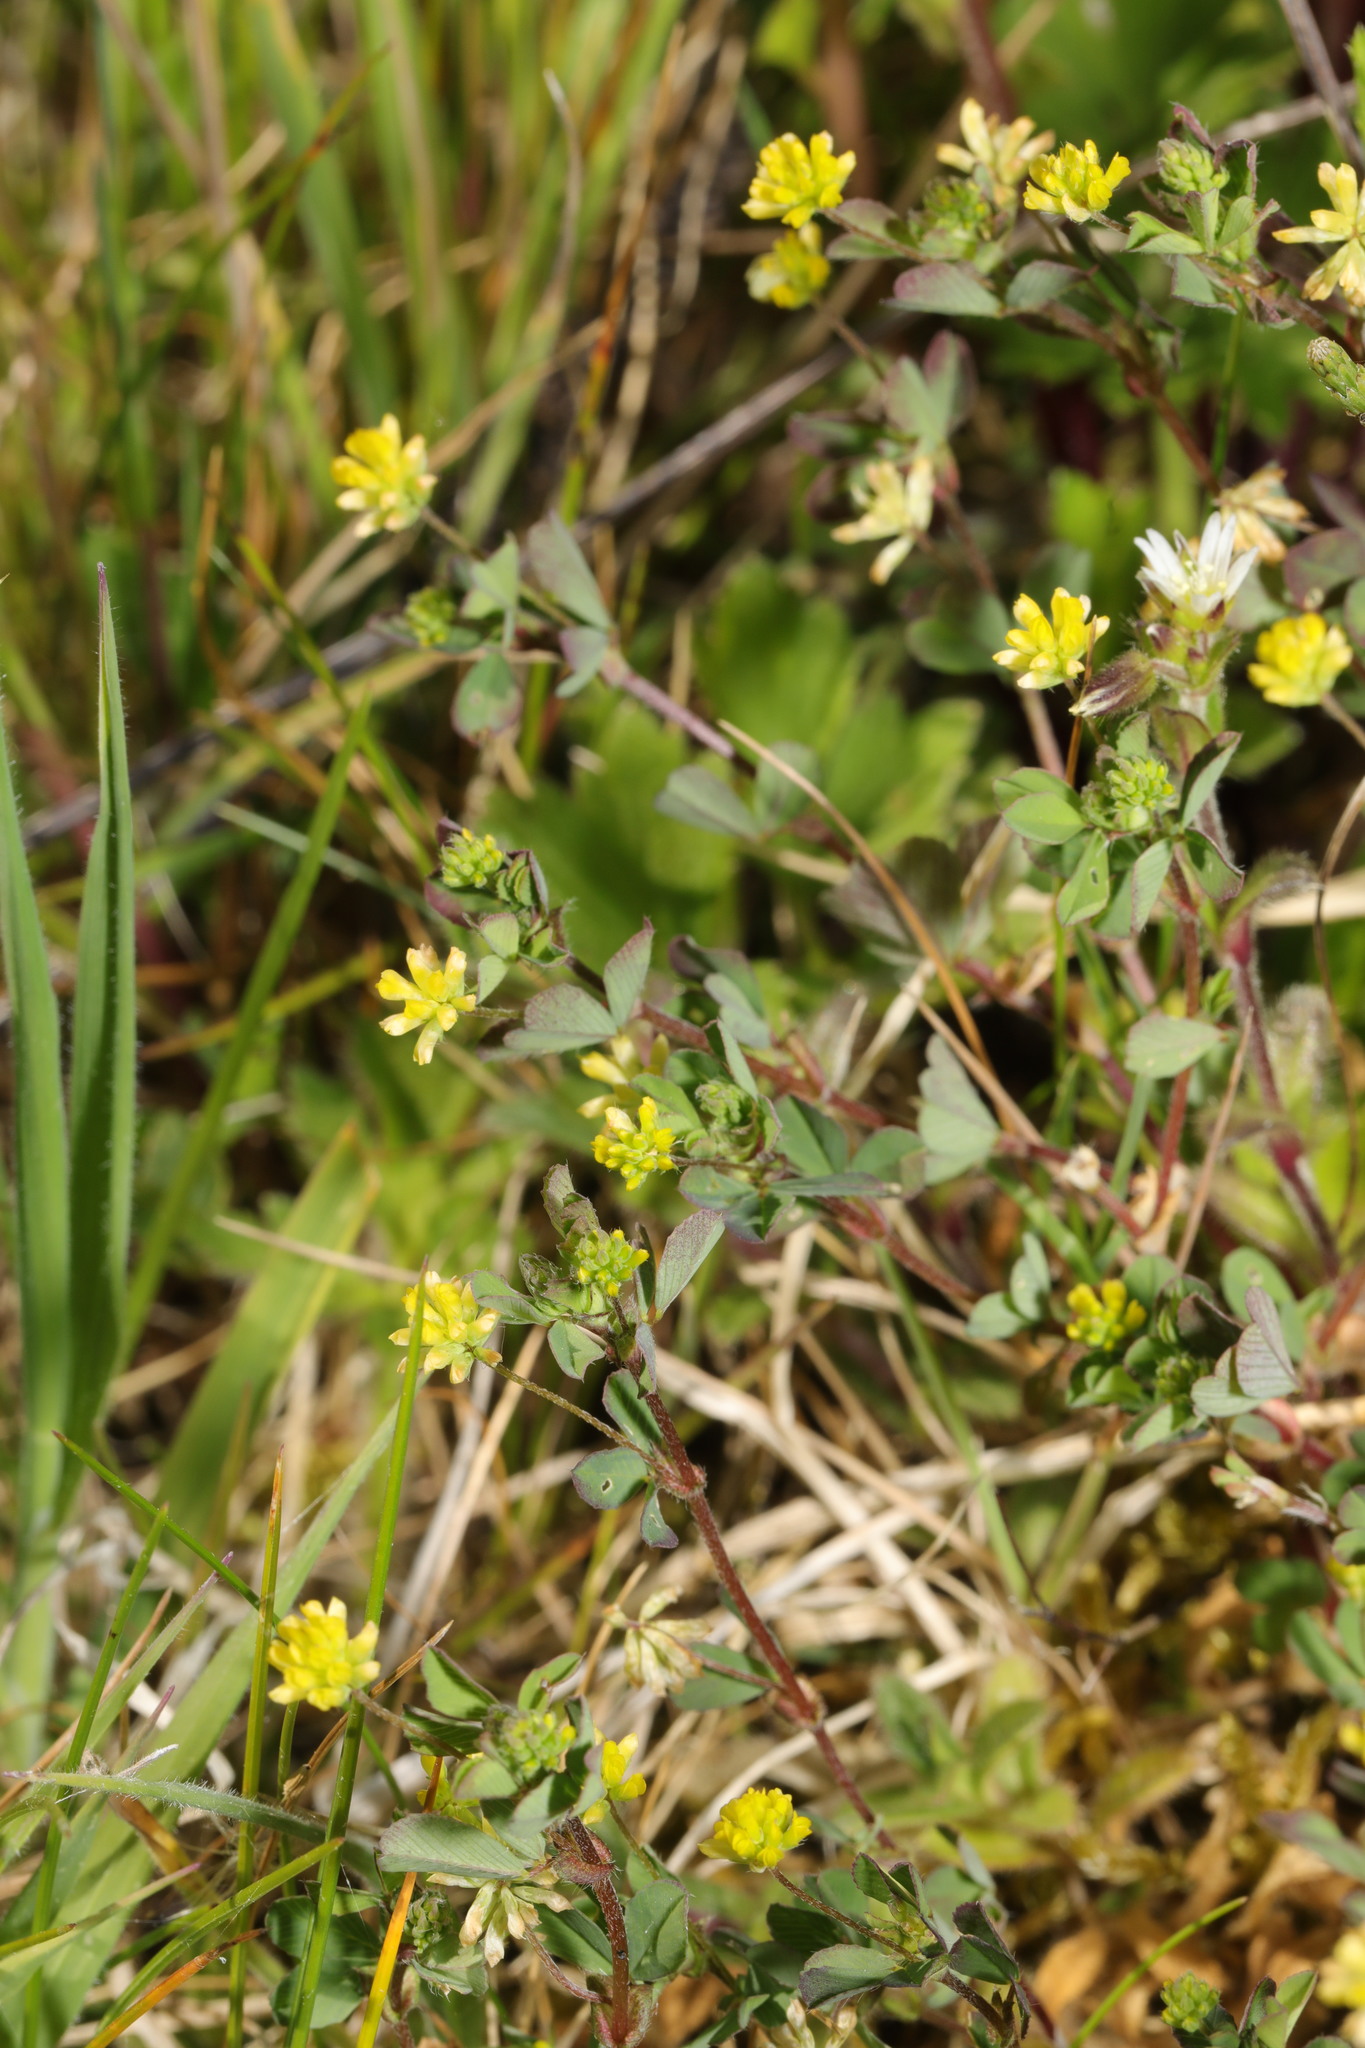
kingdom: Plantae
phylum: Tracheophyta
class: Magnoliopsida
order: Fabales
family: Fabaceae
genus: Trifolium
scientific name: Trifolium dubium
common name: Suckling clover
